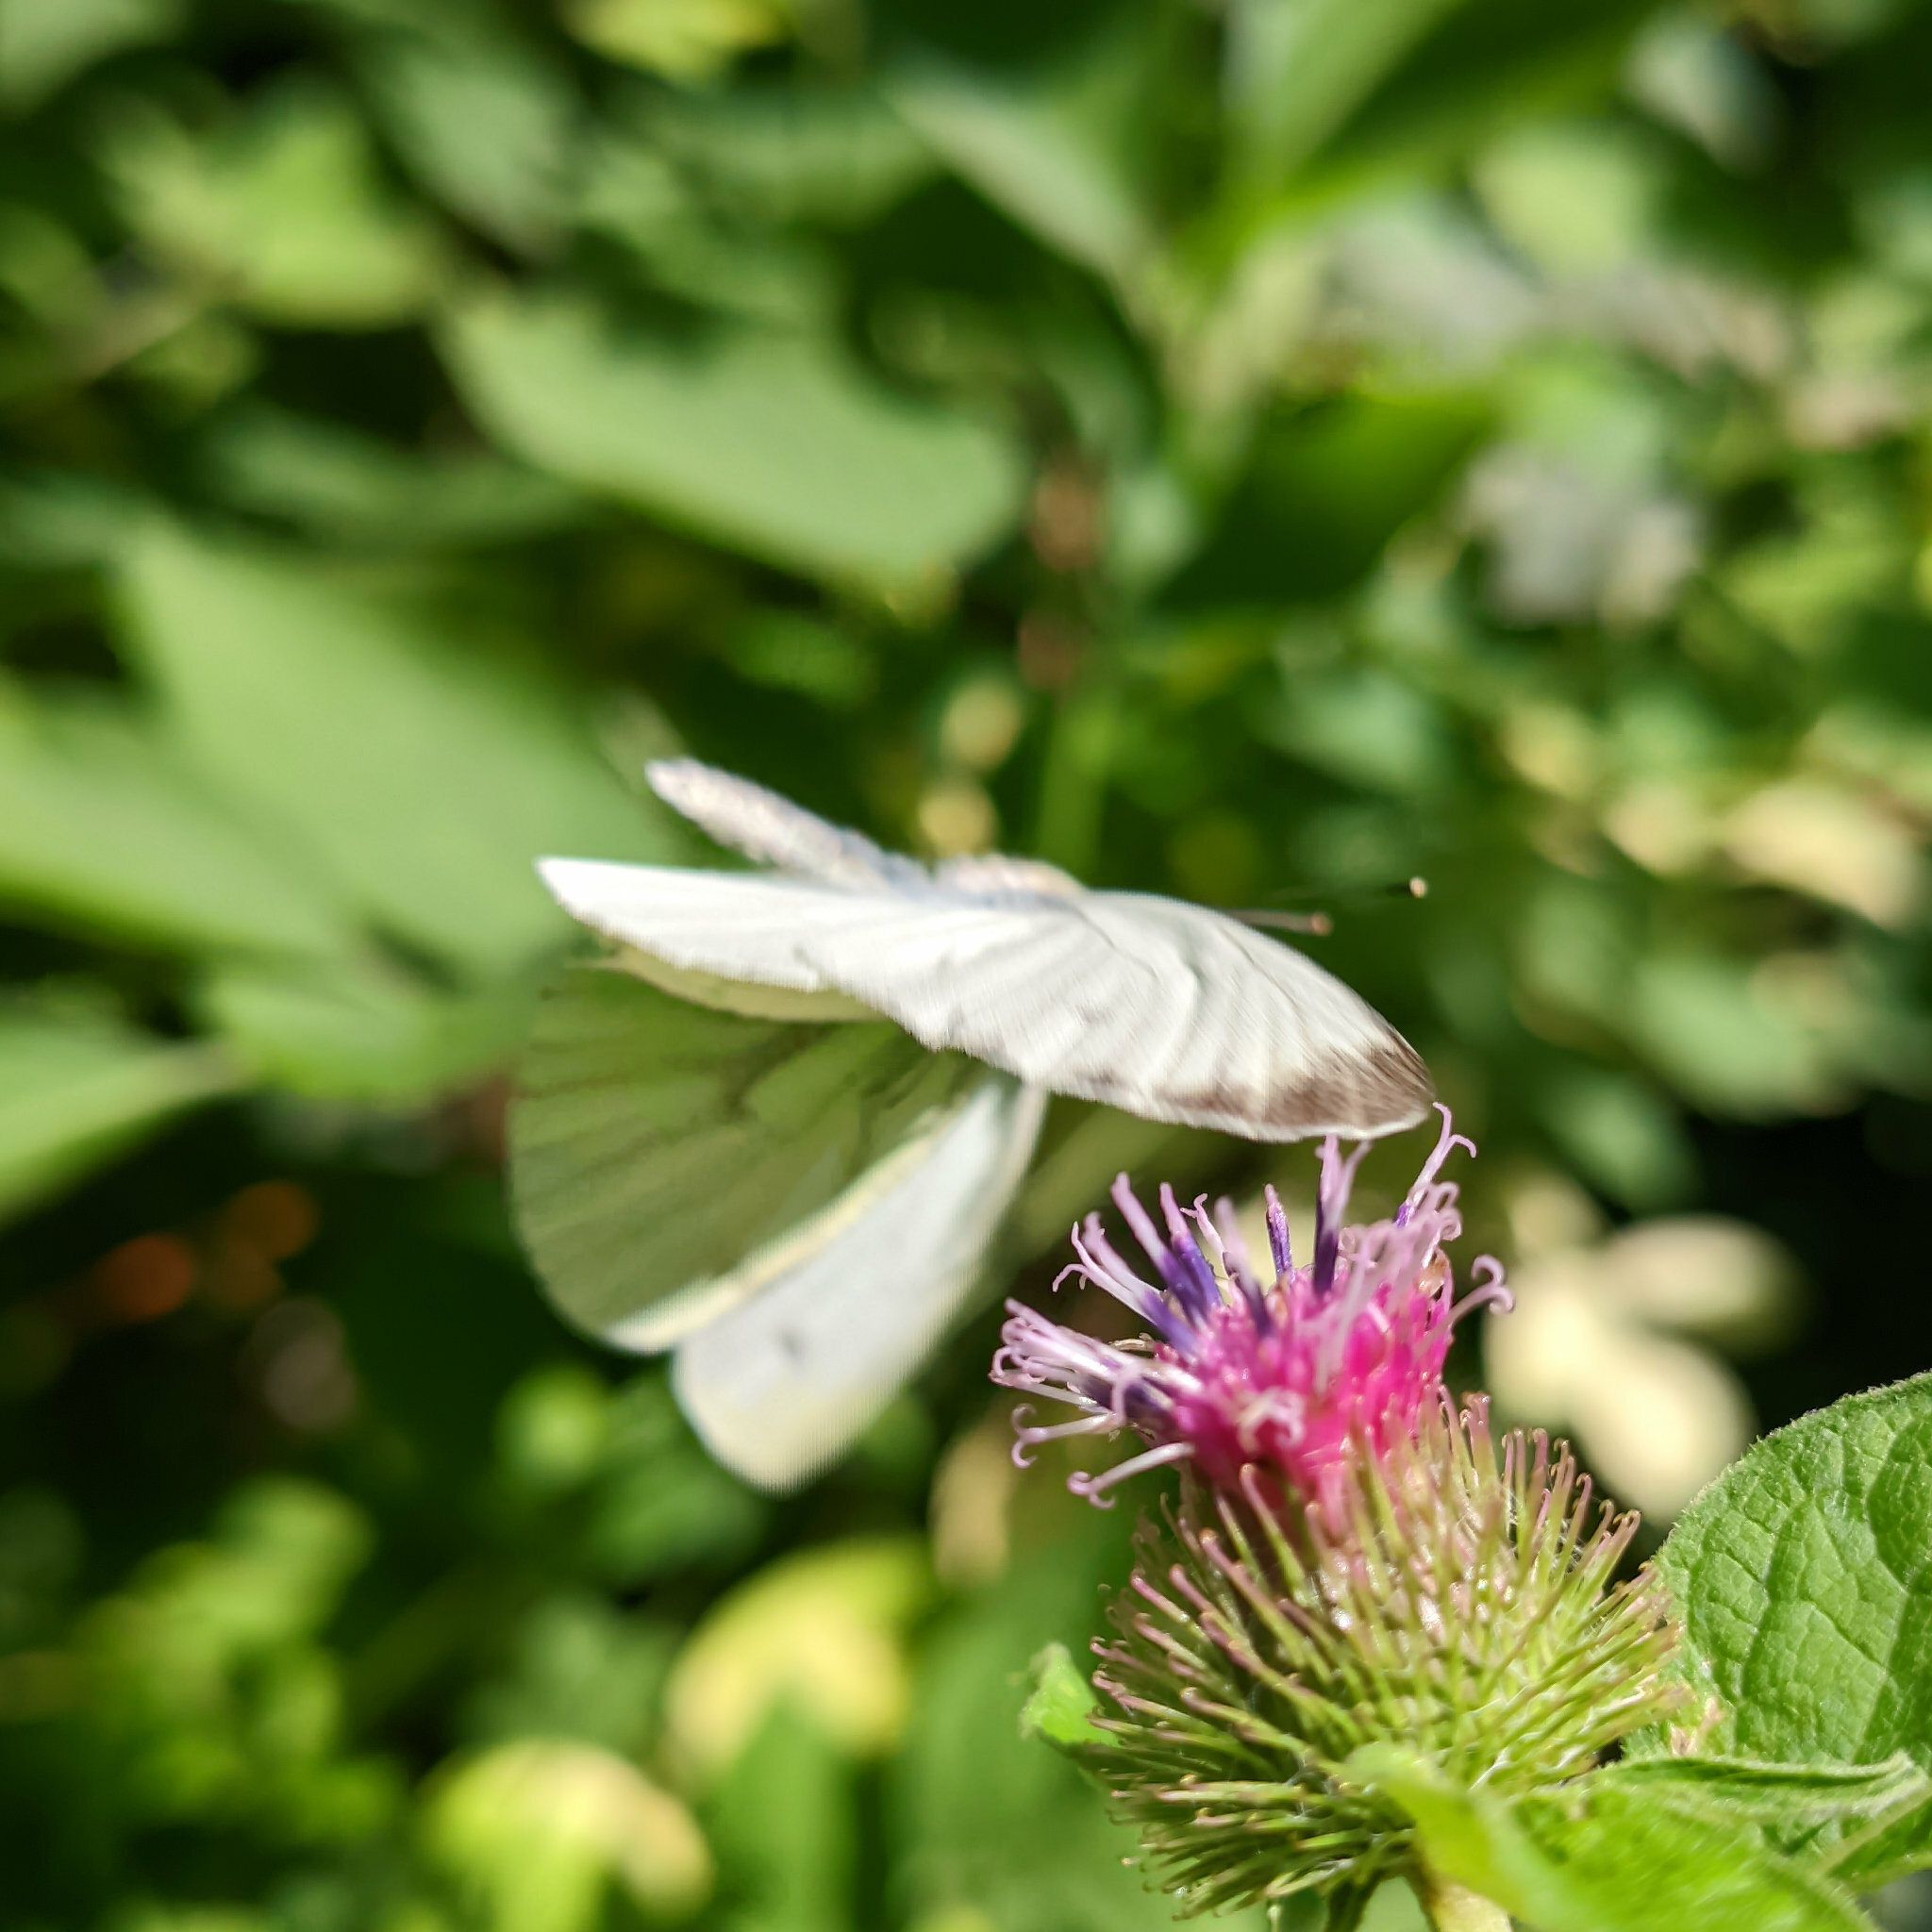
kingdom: Animalia
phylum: Arthropoda
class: Insecta
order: Lepidoptera
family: Pieridae
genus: Pieris
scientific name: Pieris napi
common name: Green-veined white
